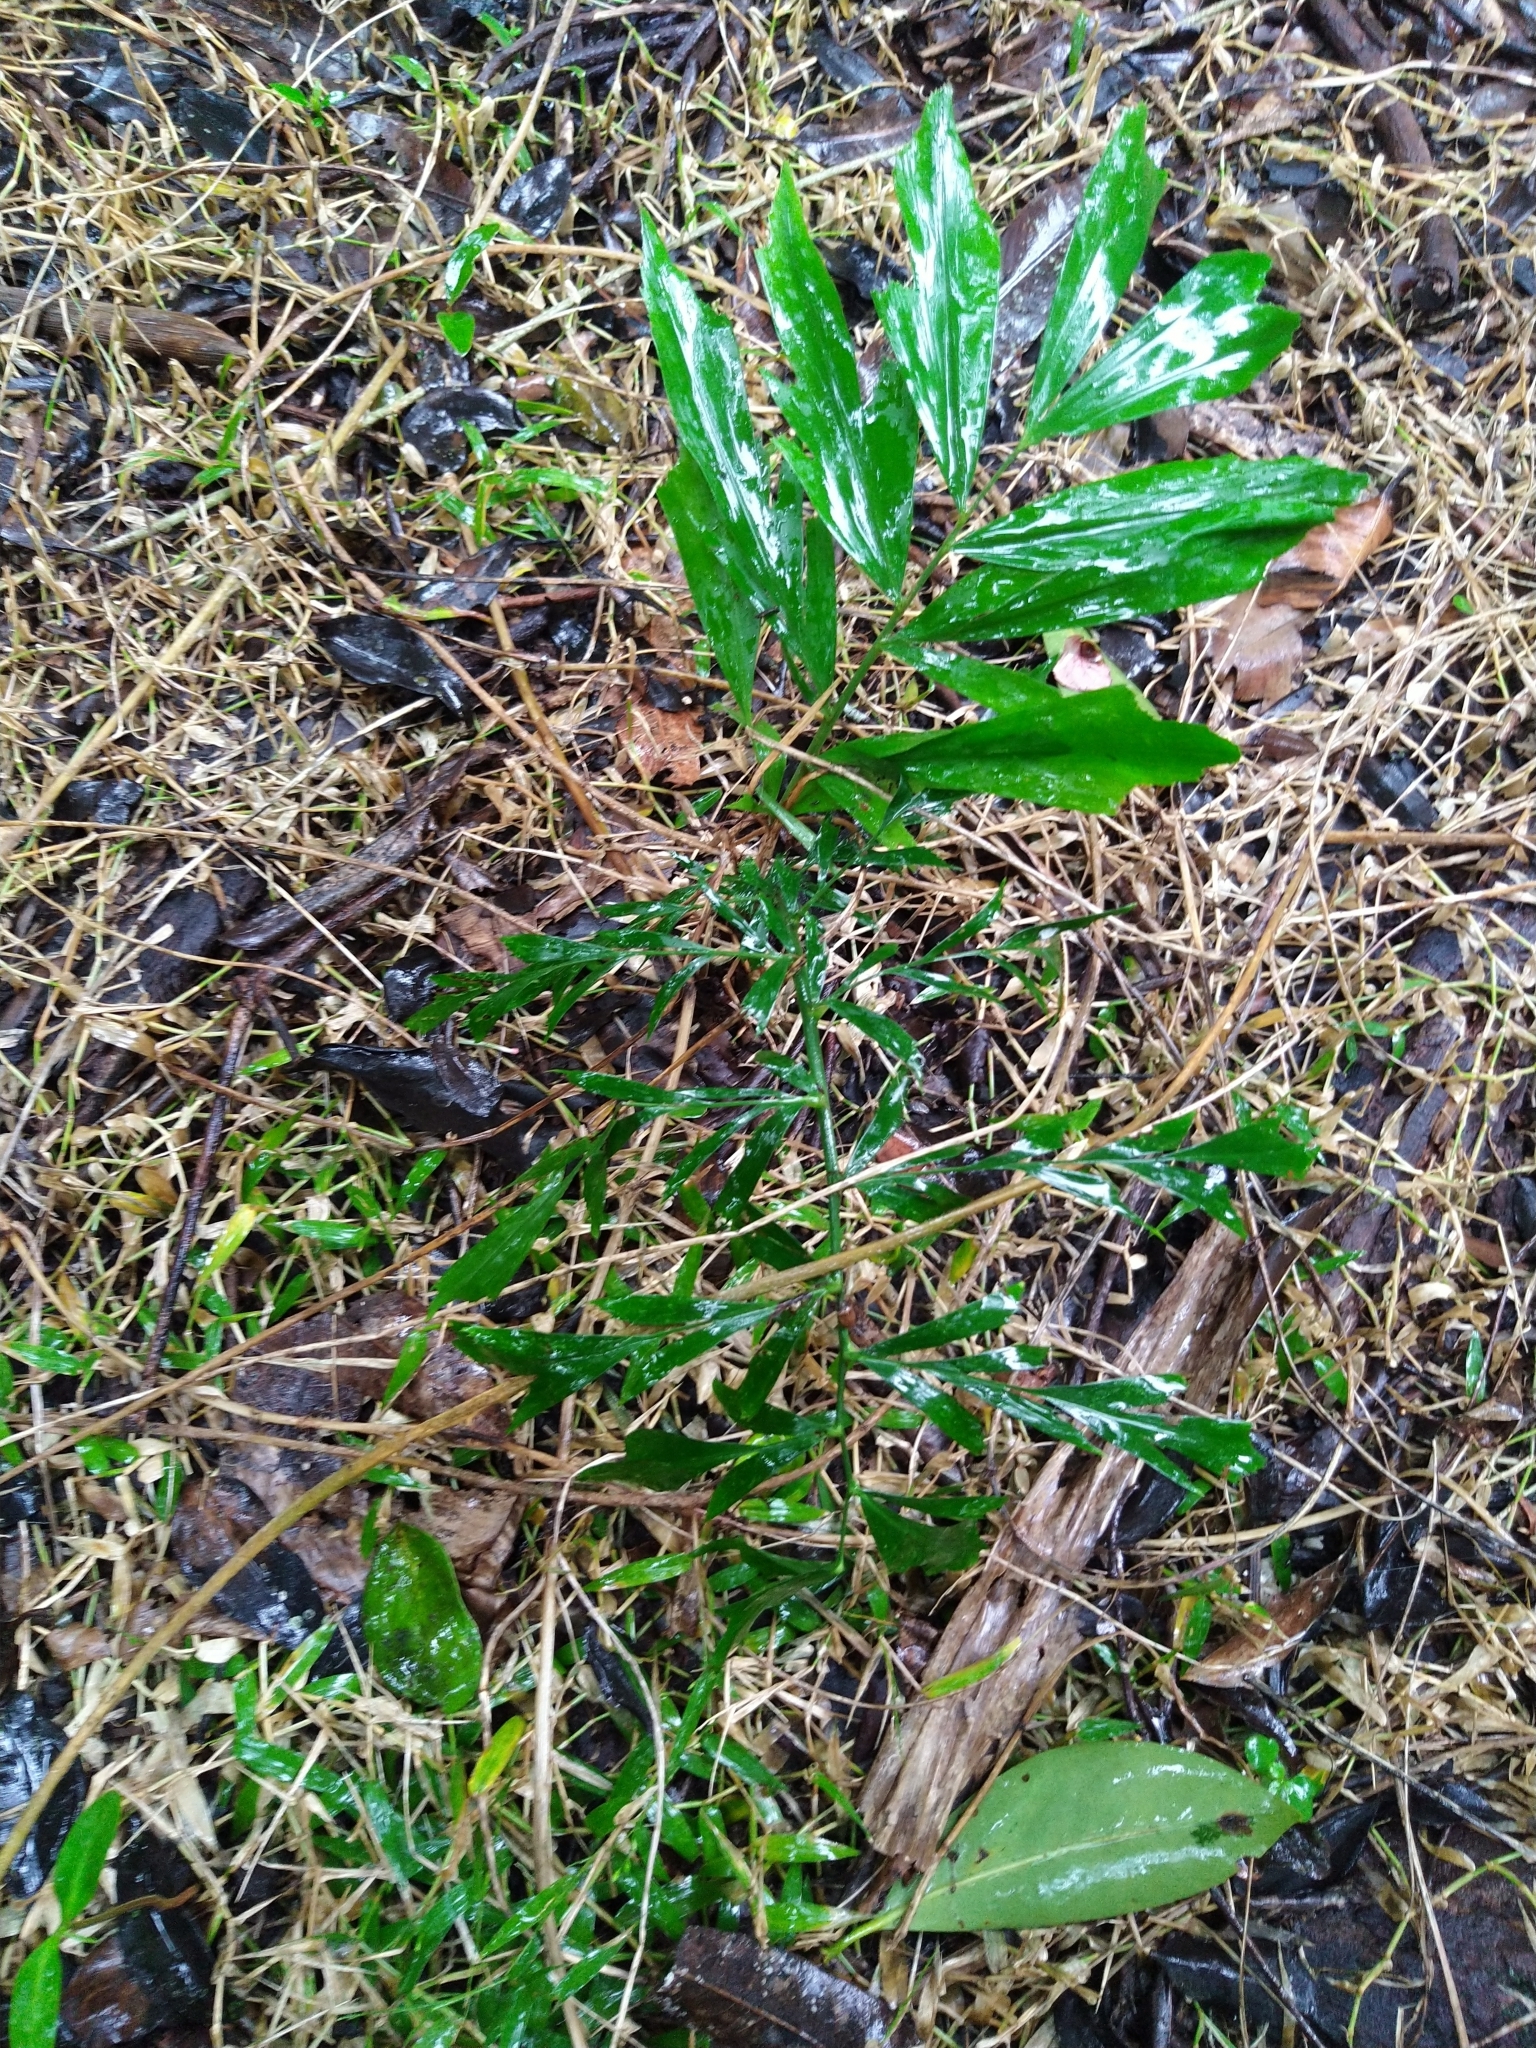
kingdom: Plantae
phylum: Tracheophyta
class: Liliopsida
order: Arecales
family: Arecaceae
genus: Caryota
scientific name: Caryota urens
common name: Jaggery palm
